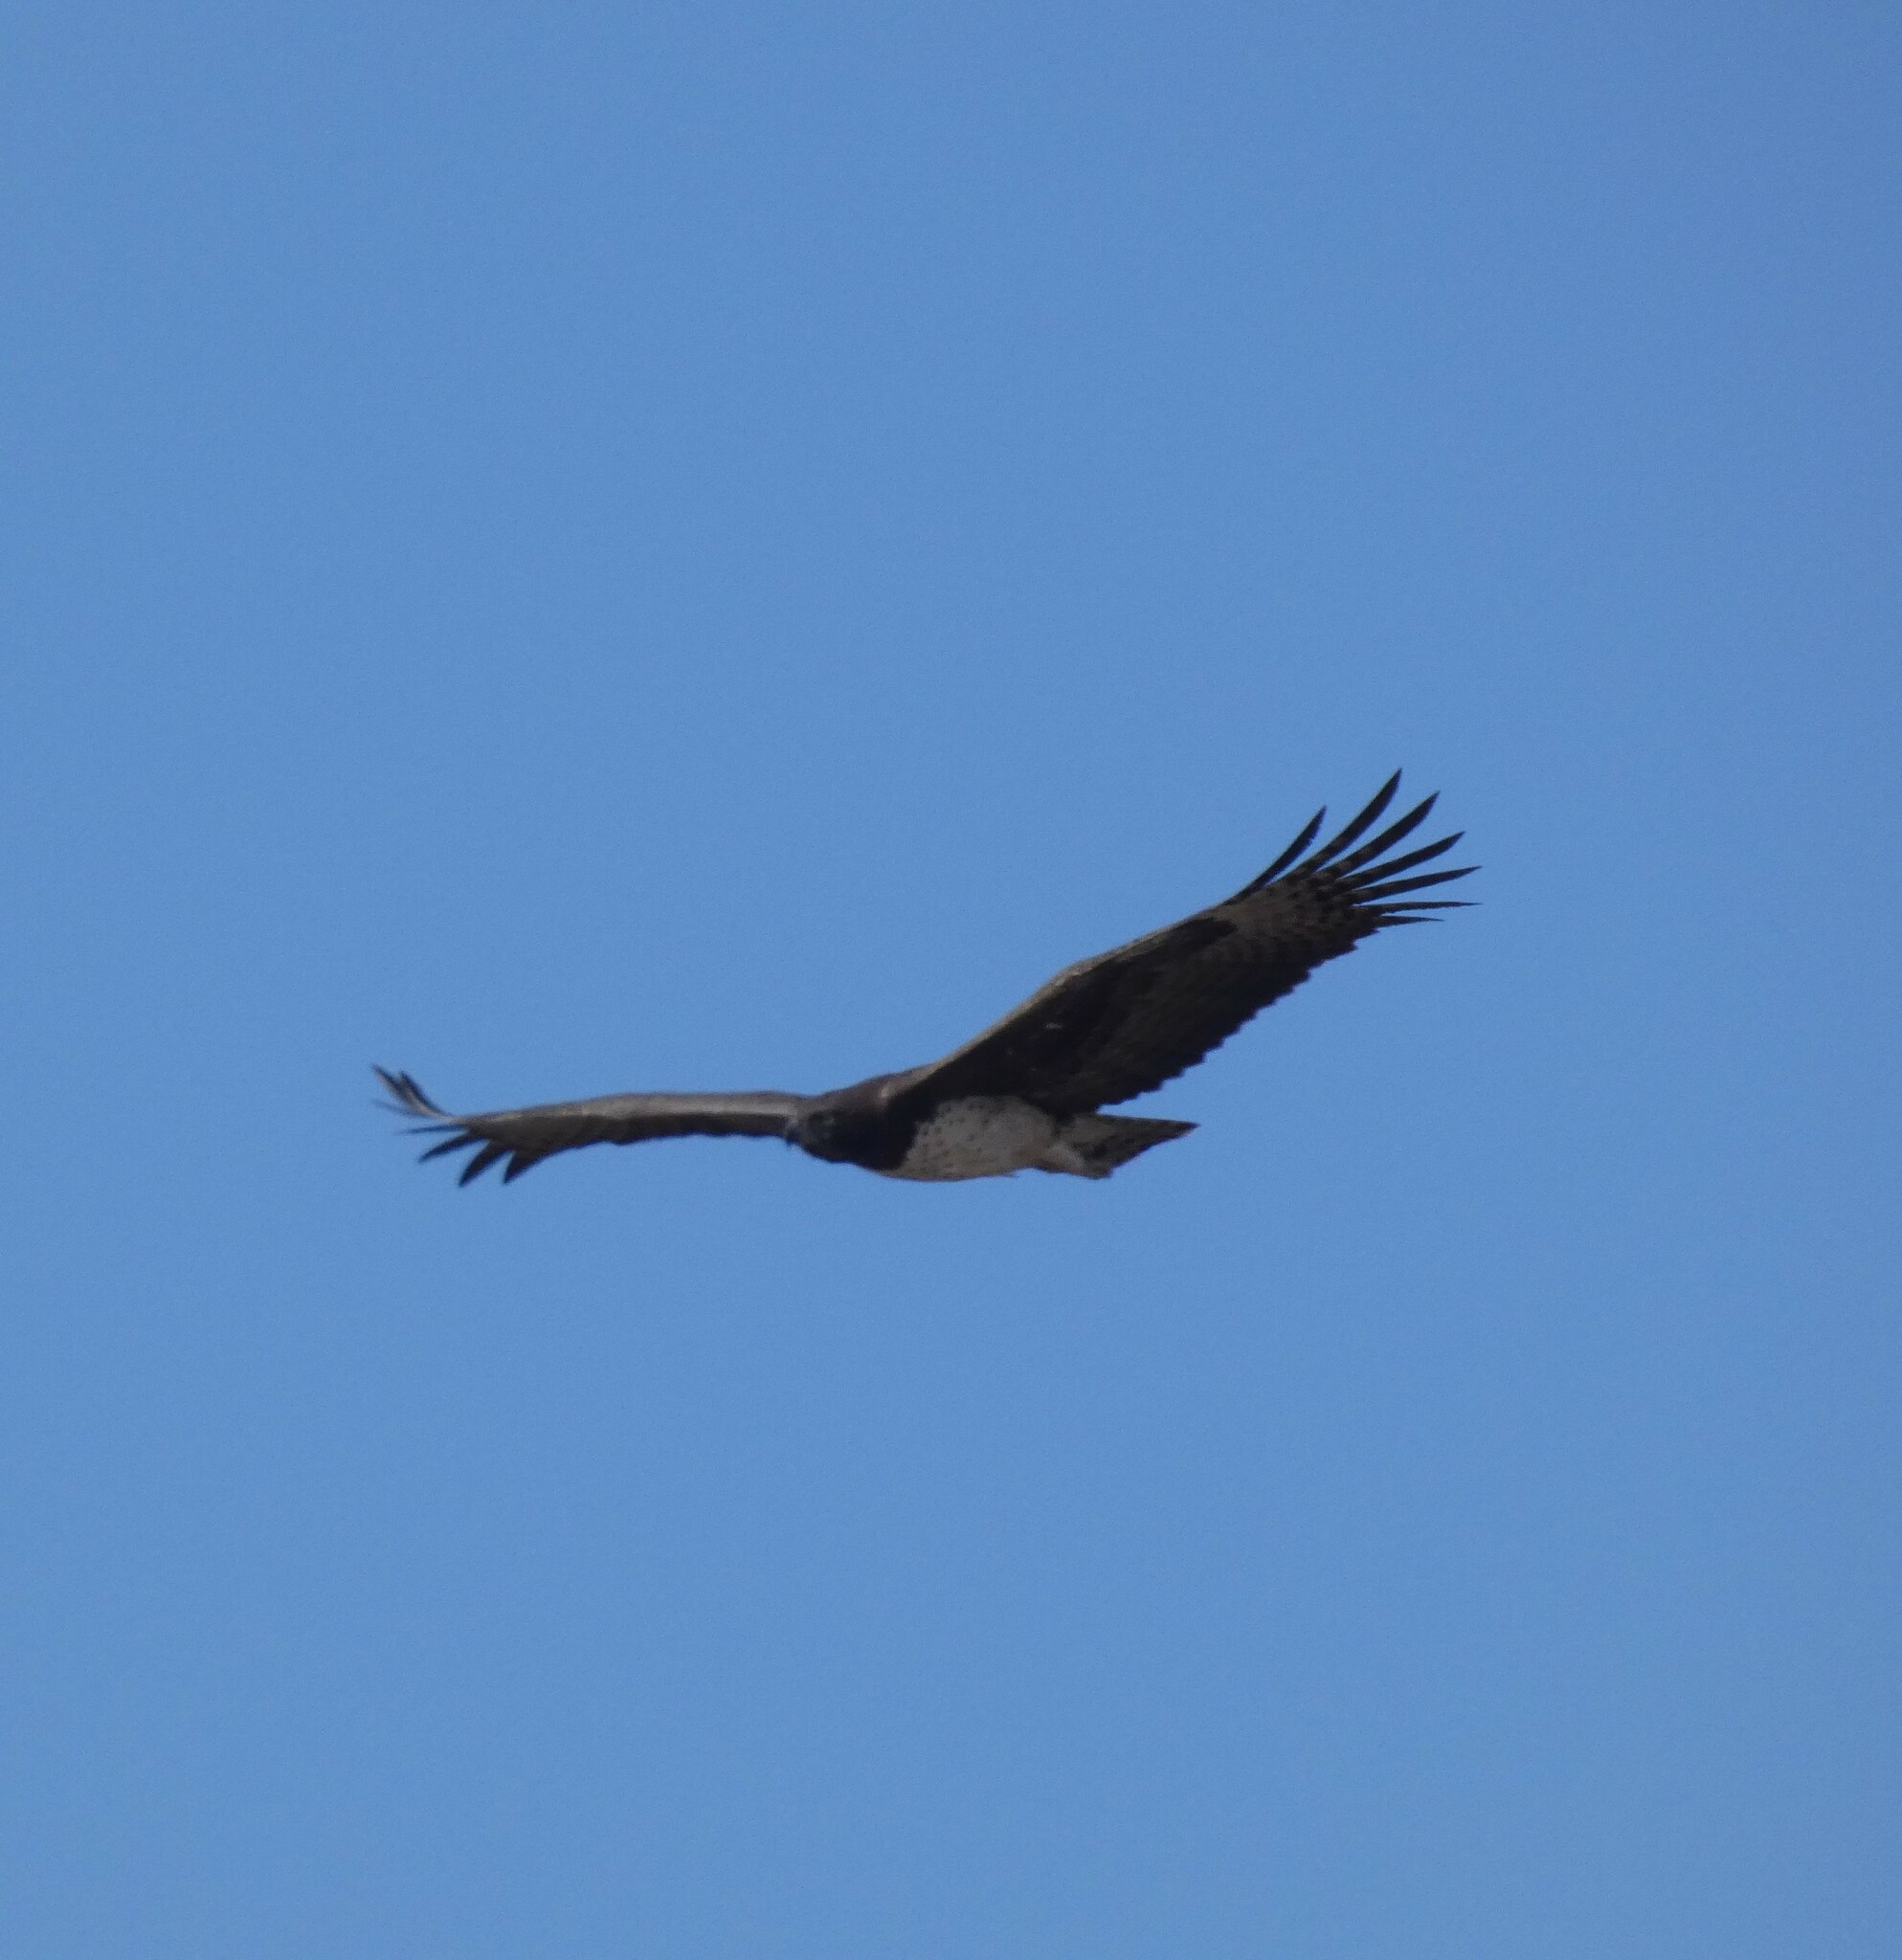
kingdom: Animalia
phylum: Chordata
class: Aves
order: Accipitriformes
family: Accipitridae
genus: Polemaetus
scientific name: Polemaetus bellicosus
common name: Martial eagle
